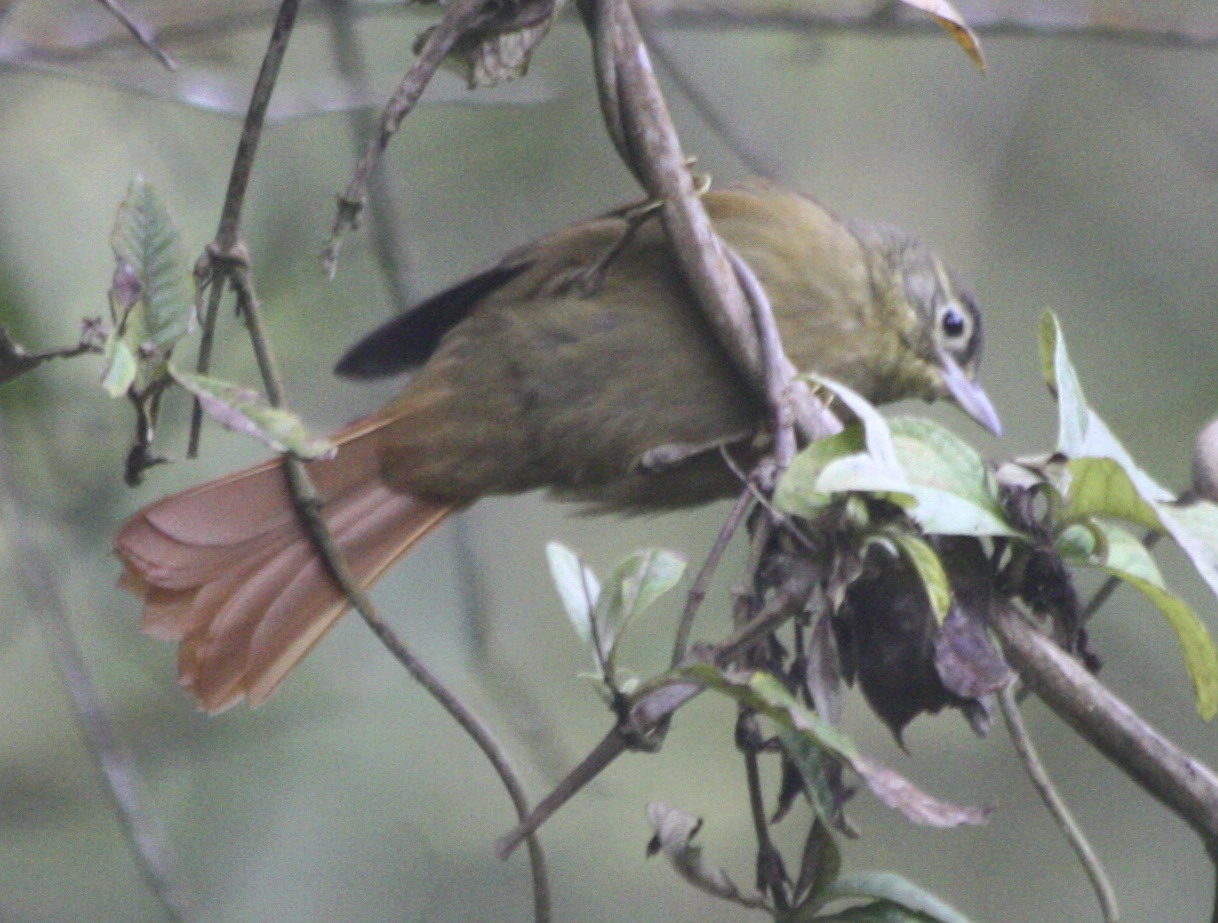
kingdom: Animalia
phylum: Chordata
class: Aves
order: Passeriformes
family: Furnariidae
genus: Anabacerthia
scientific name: Anabacerthia striaticollis
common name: Montane foliage-gleaner
